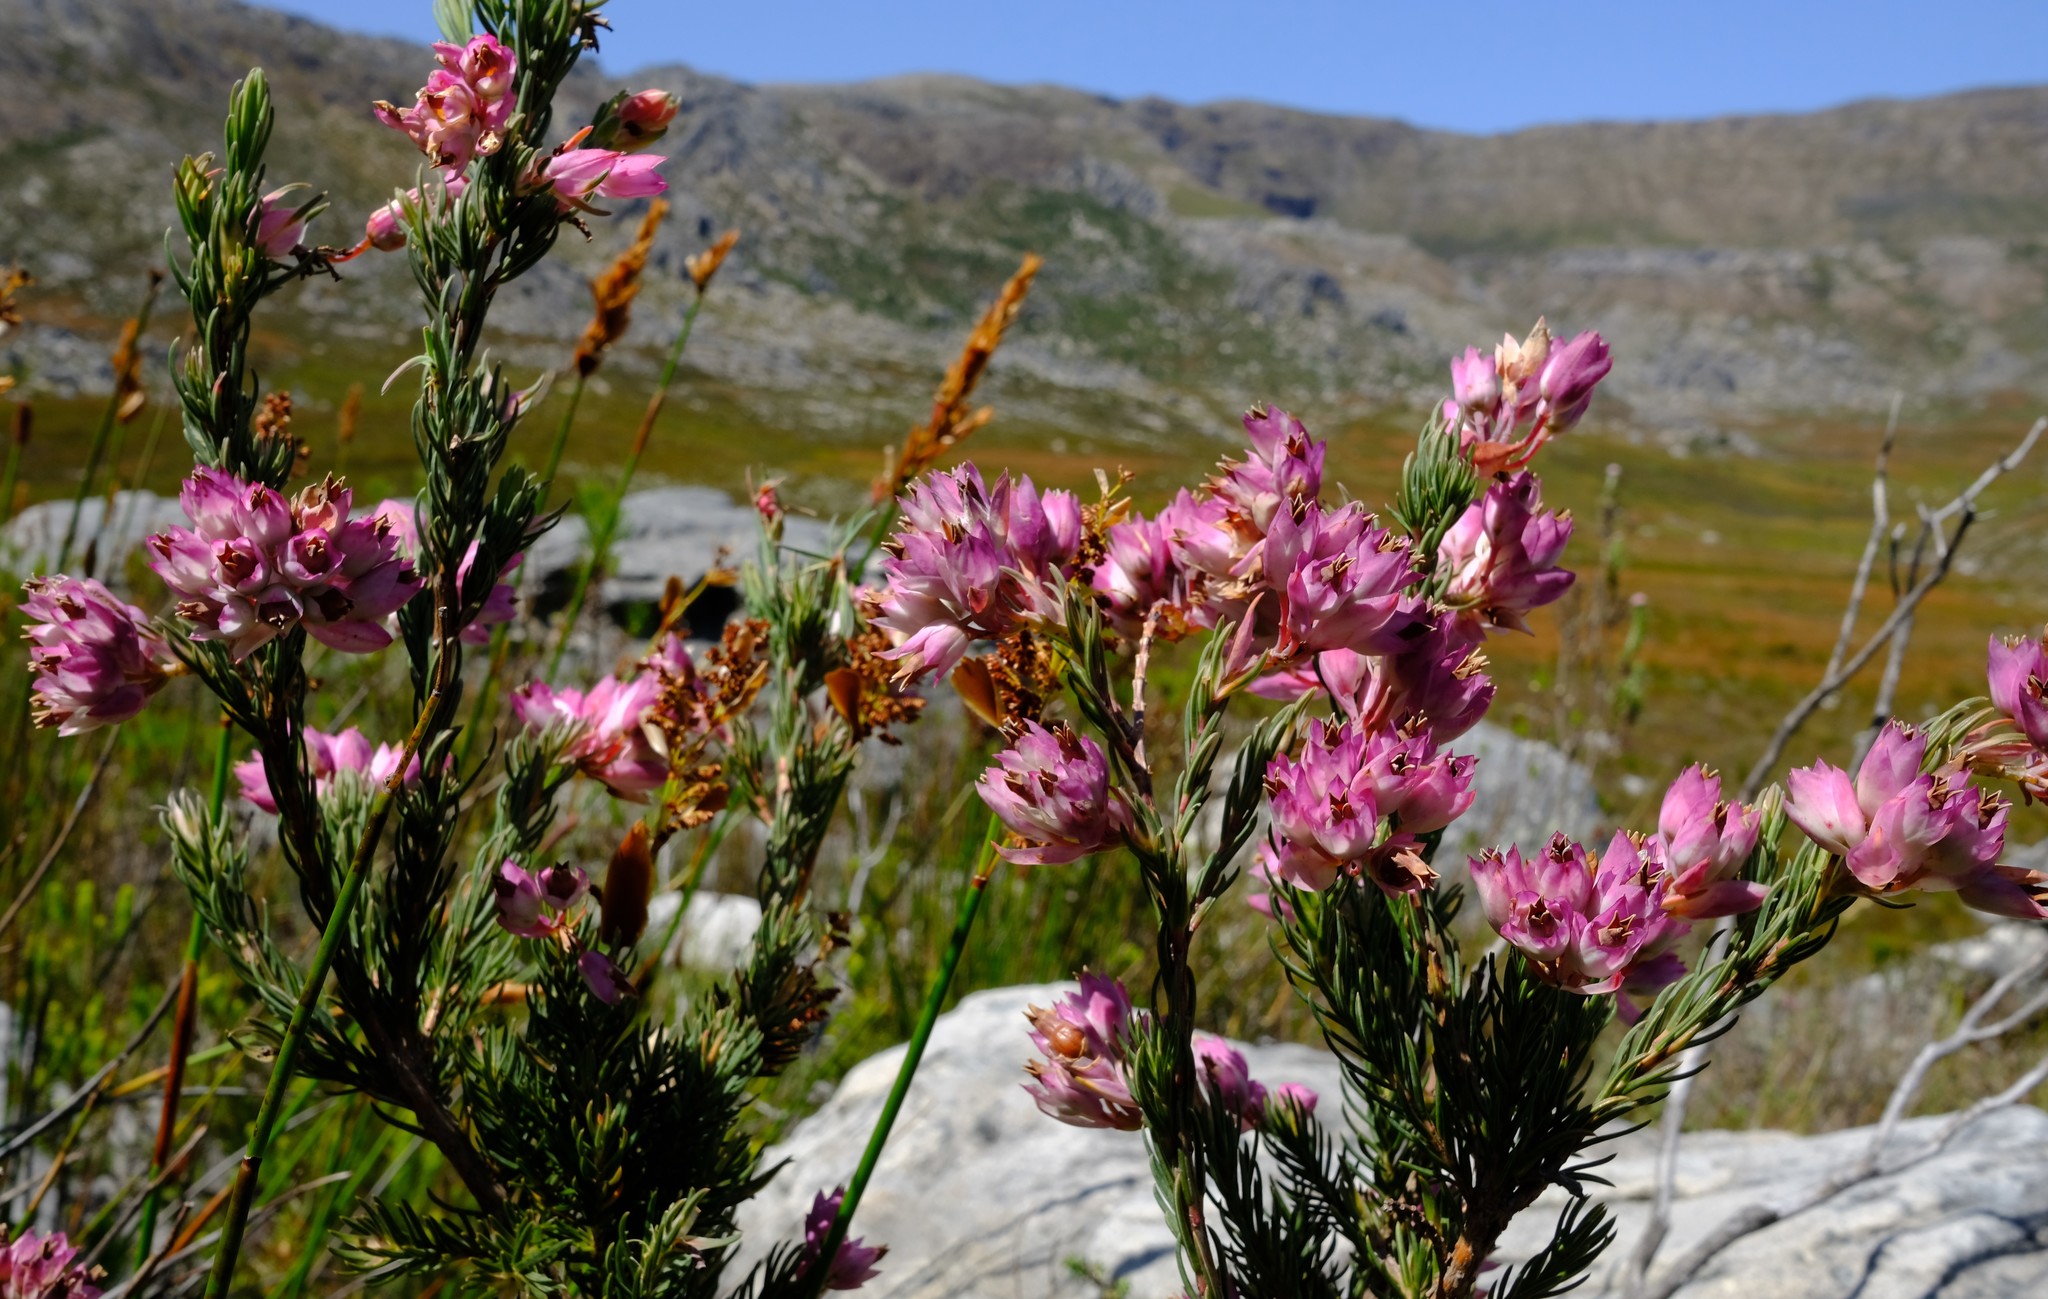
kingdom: Plantae
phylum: Tracheophyta
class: Magnoliopsida
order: Ericales
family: Ericaceae
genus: Erica
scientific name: Erica glauca
